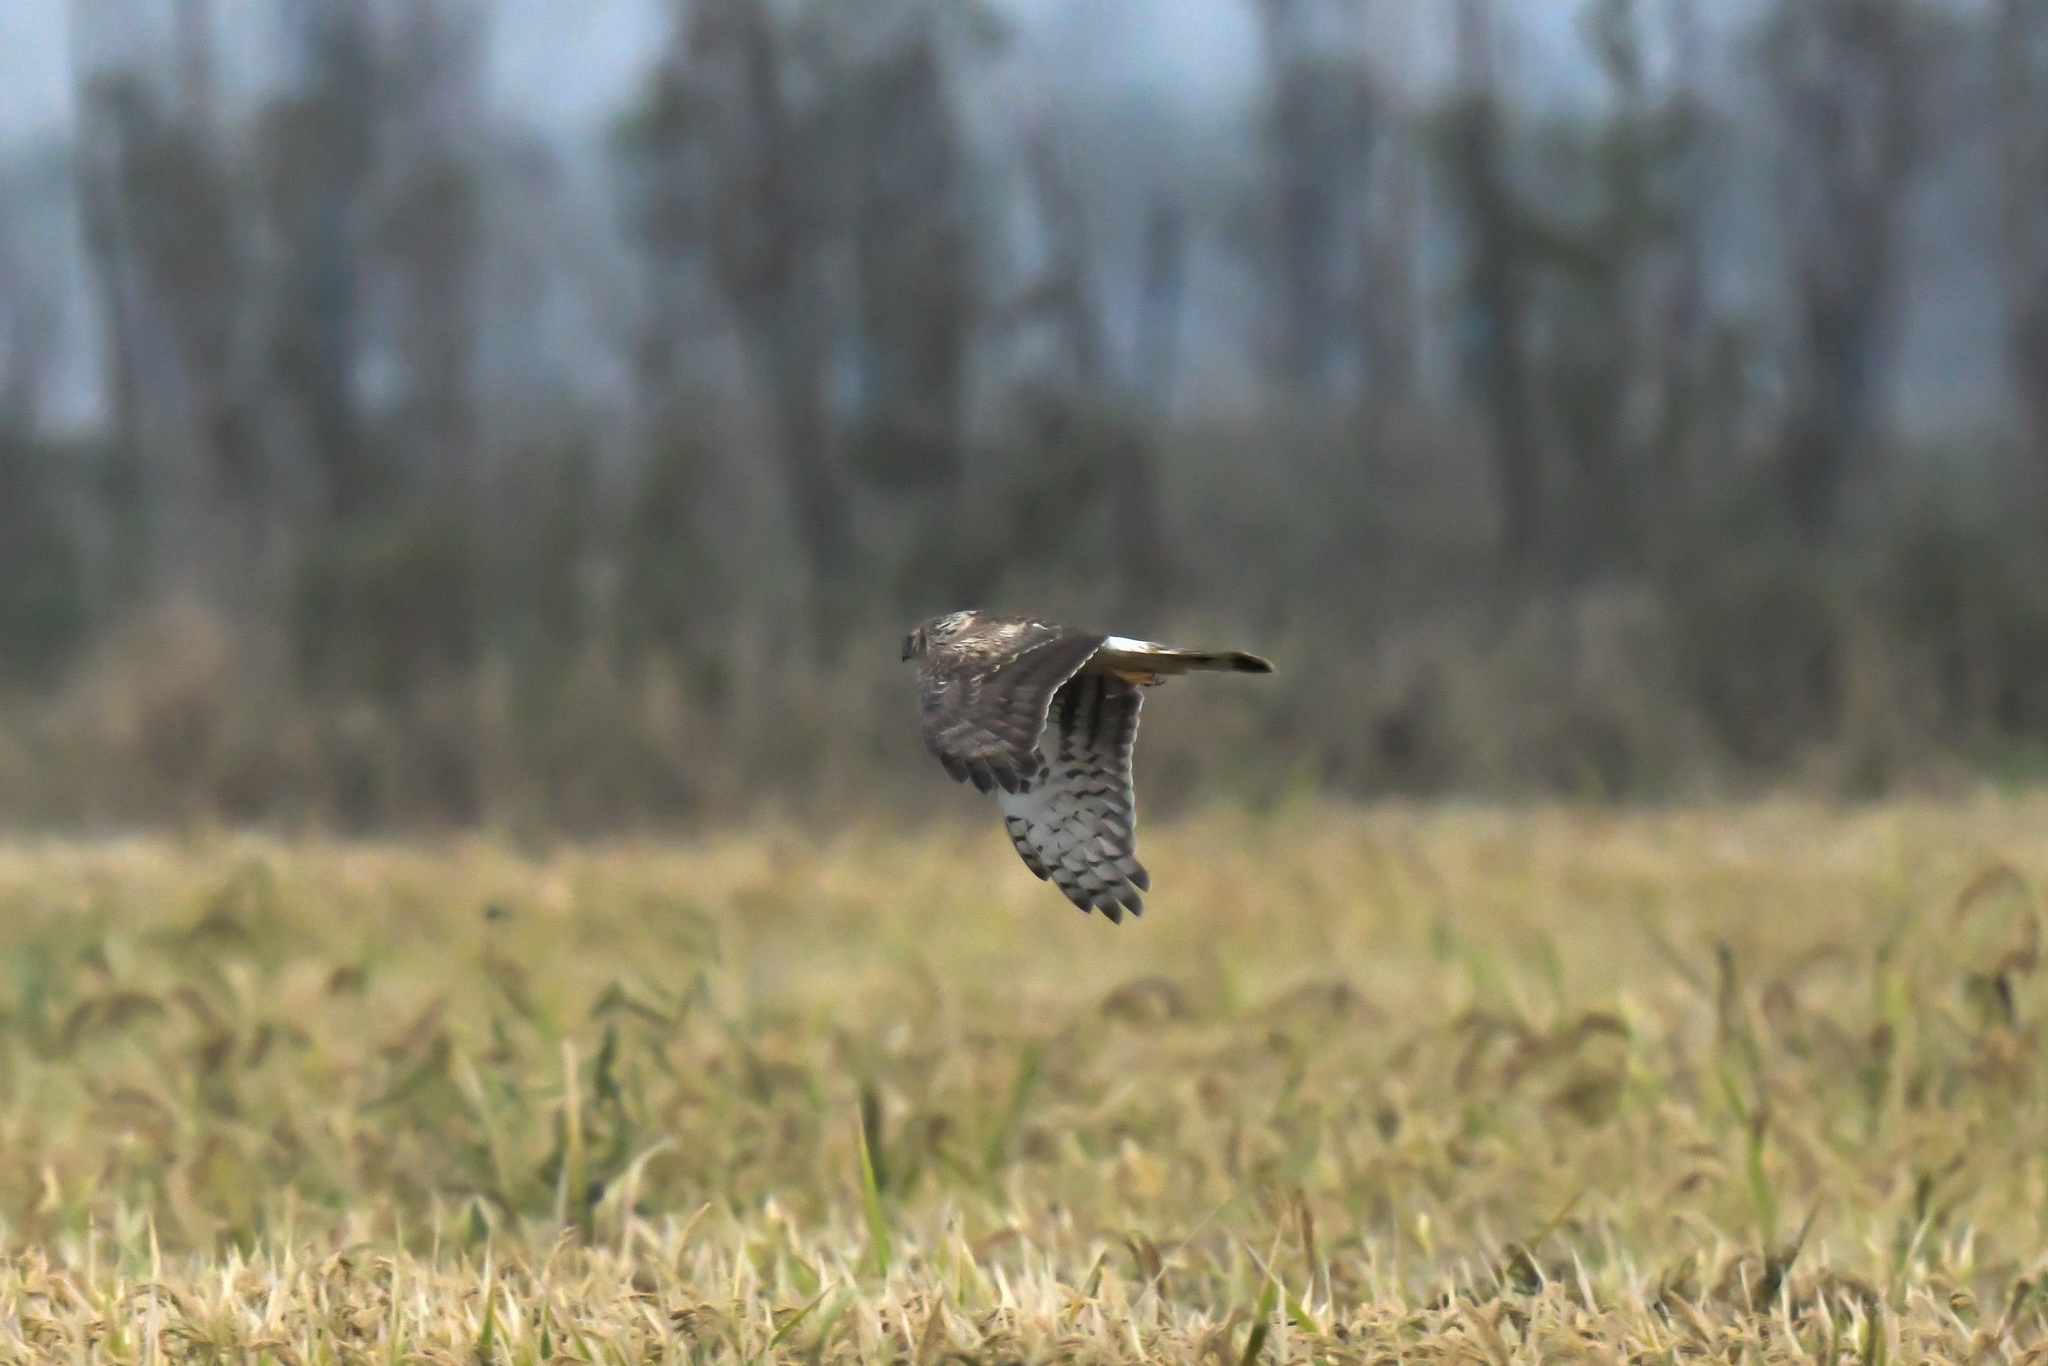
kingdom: Animalia
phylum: Chordata
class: Aves
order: Accipitriformes
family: Accipitridae
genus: Circus
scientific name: Circus cyaneus
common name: Hen harrier
